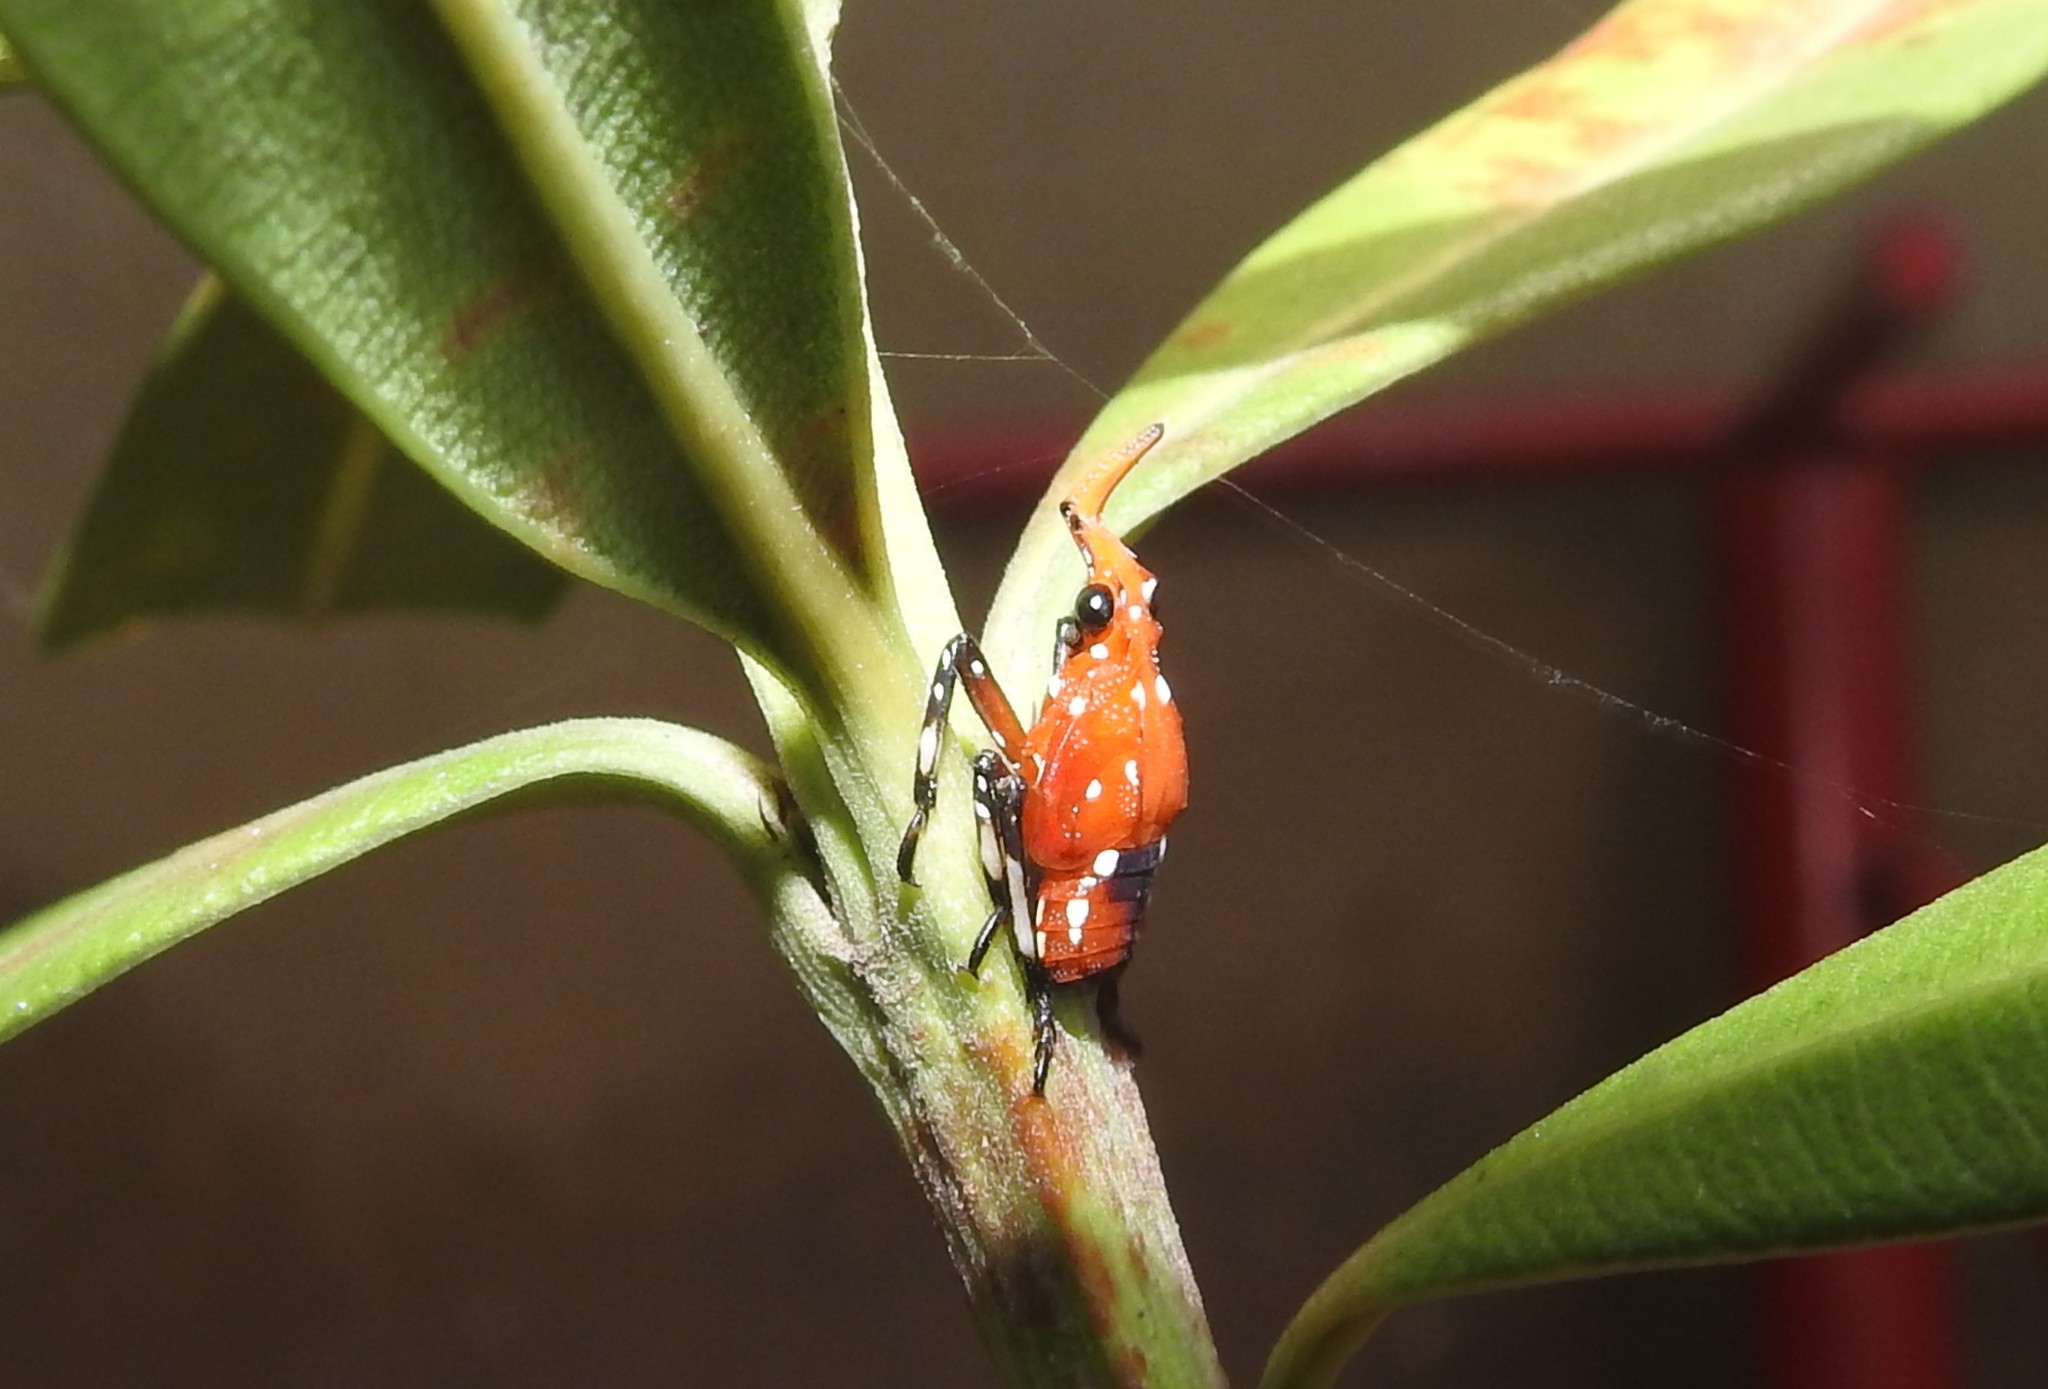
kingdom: Animalia
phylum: Arthropoda
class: Insecta
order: Hemiptera
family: Fulgoridae
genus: Kalidasa
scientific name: Kalidasa lanata
